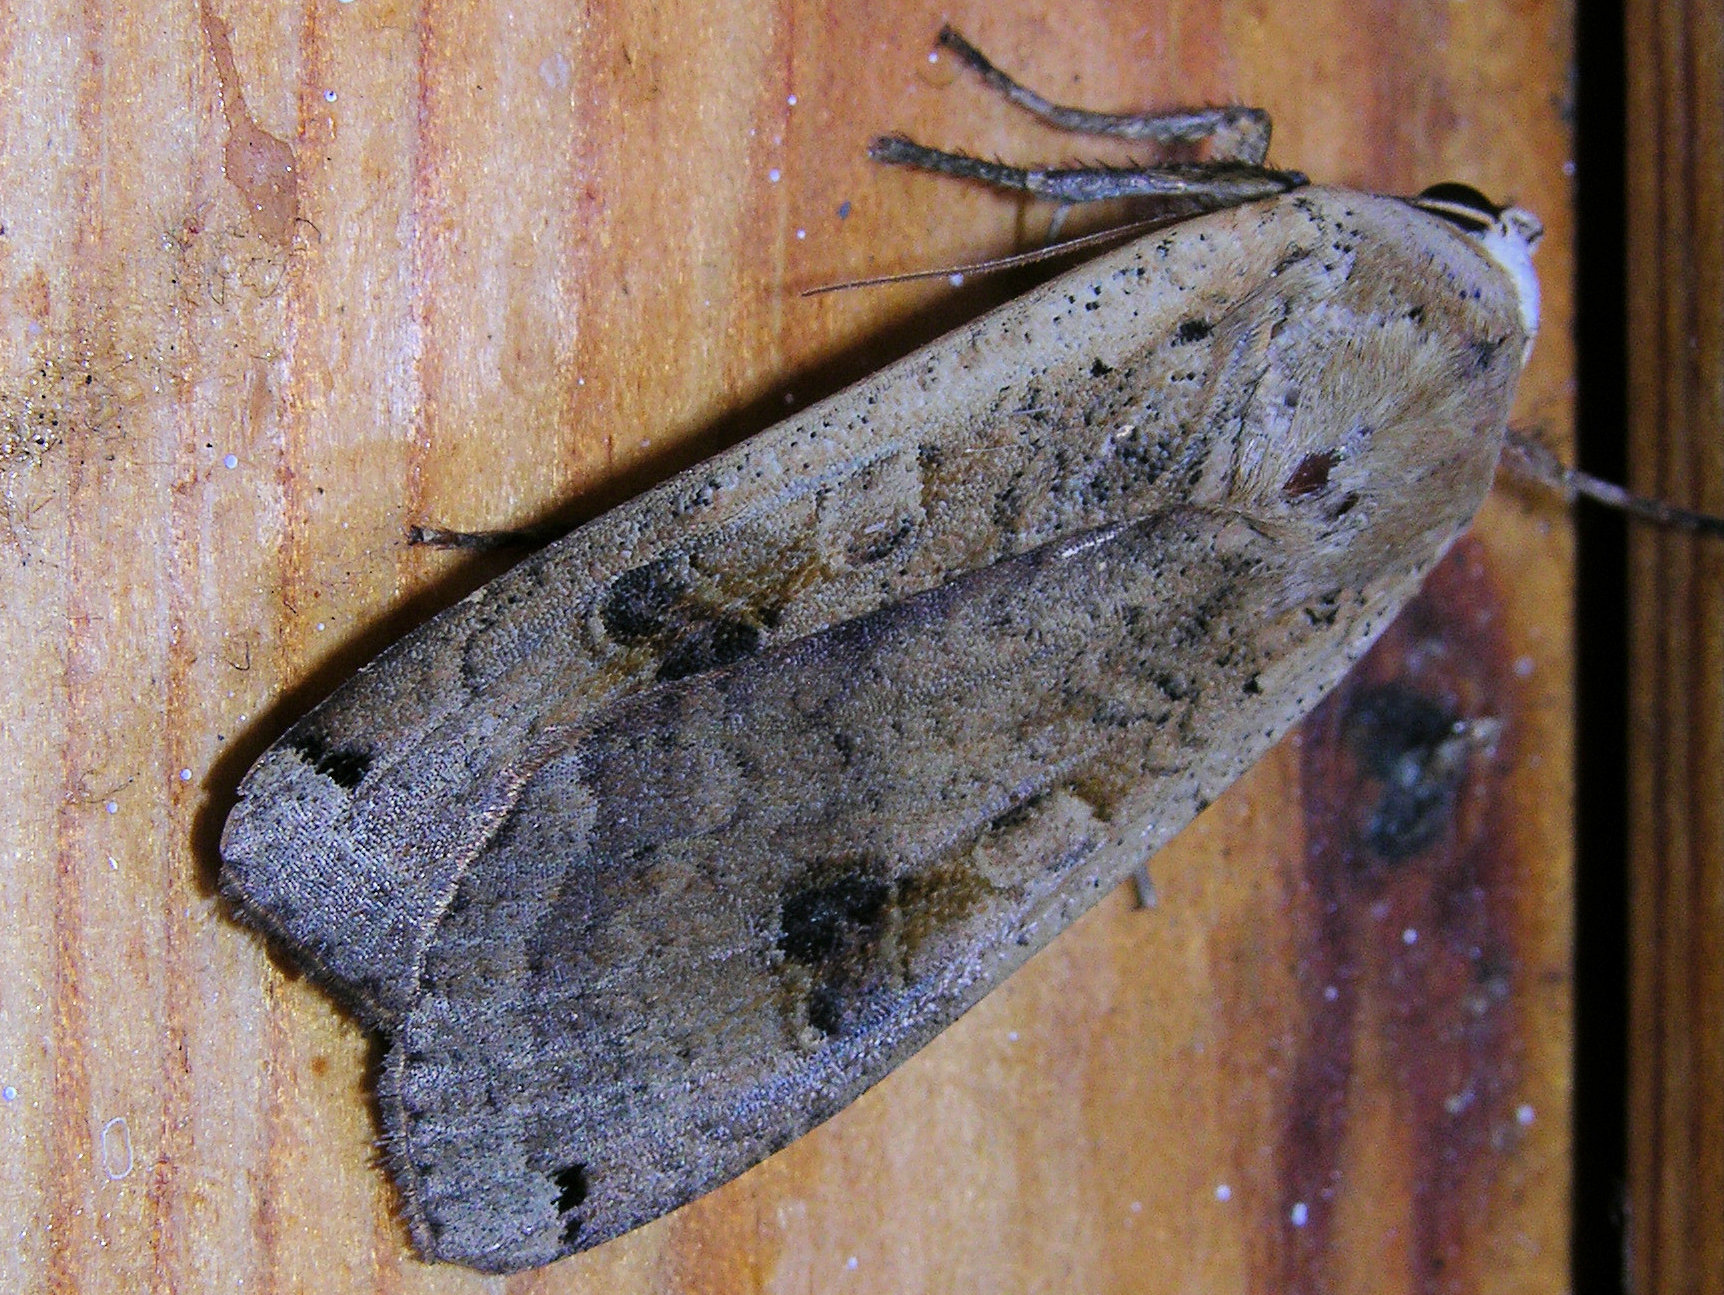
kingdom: Animalia
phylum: Arthropoda
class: Insecta
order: Lepidoptera
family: Noctuidae
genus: Noctua
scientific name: Noctua pronuba
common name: Large yellow underwing
